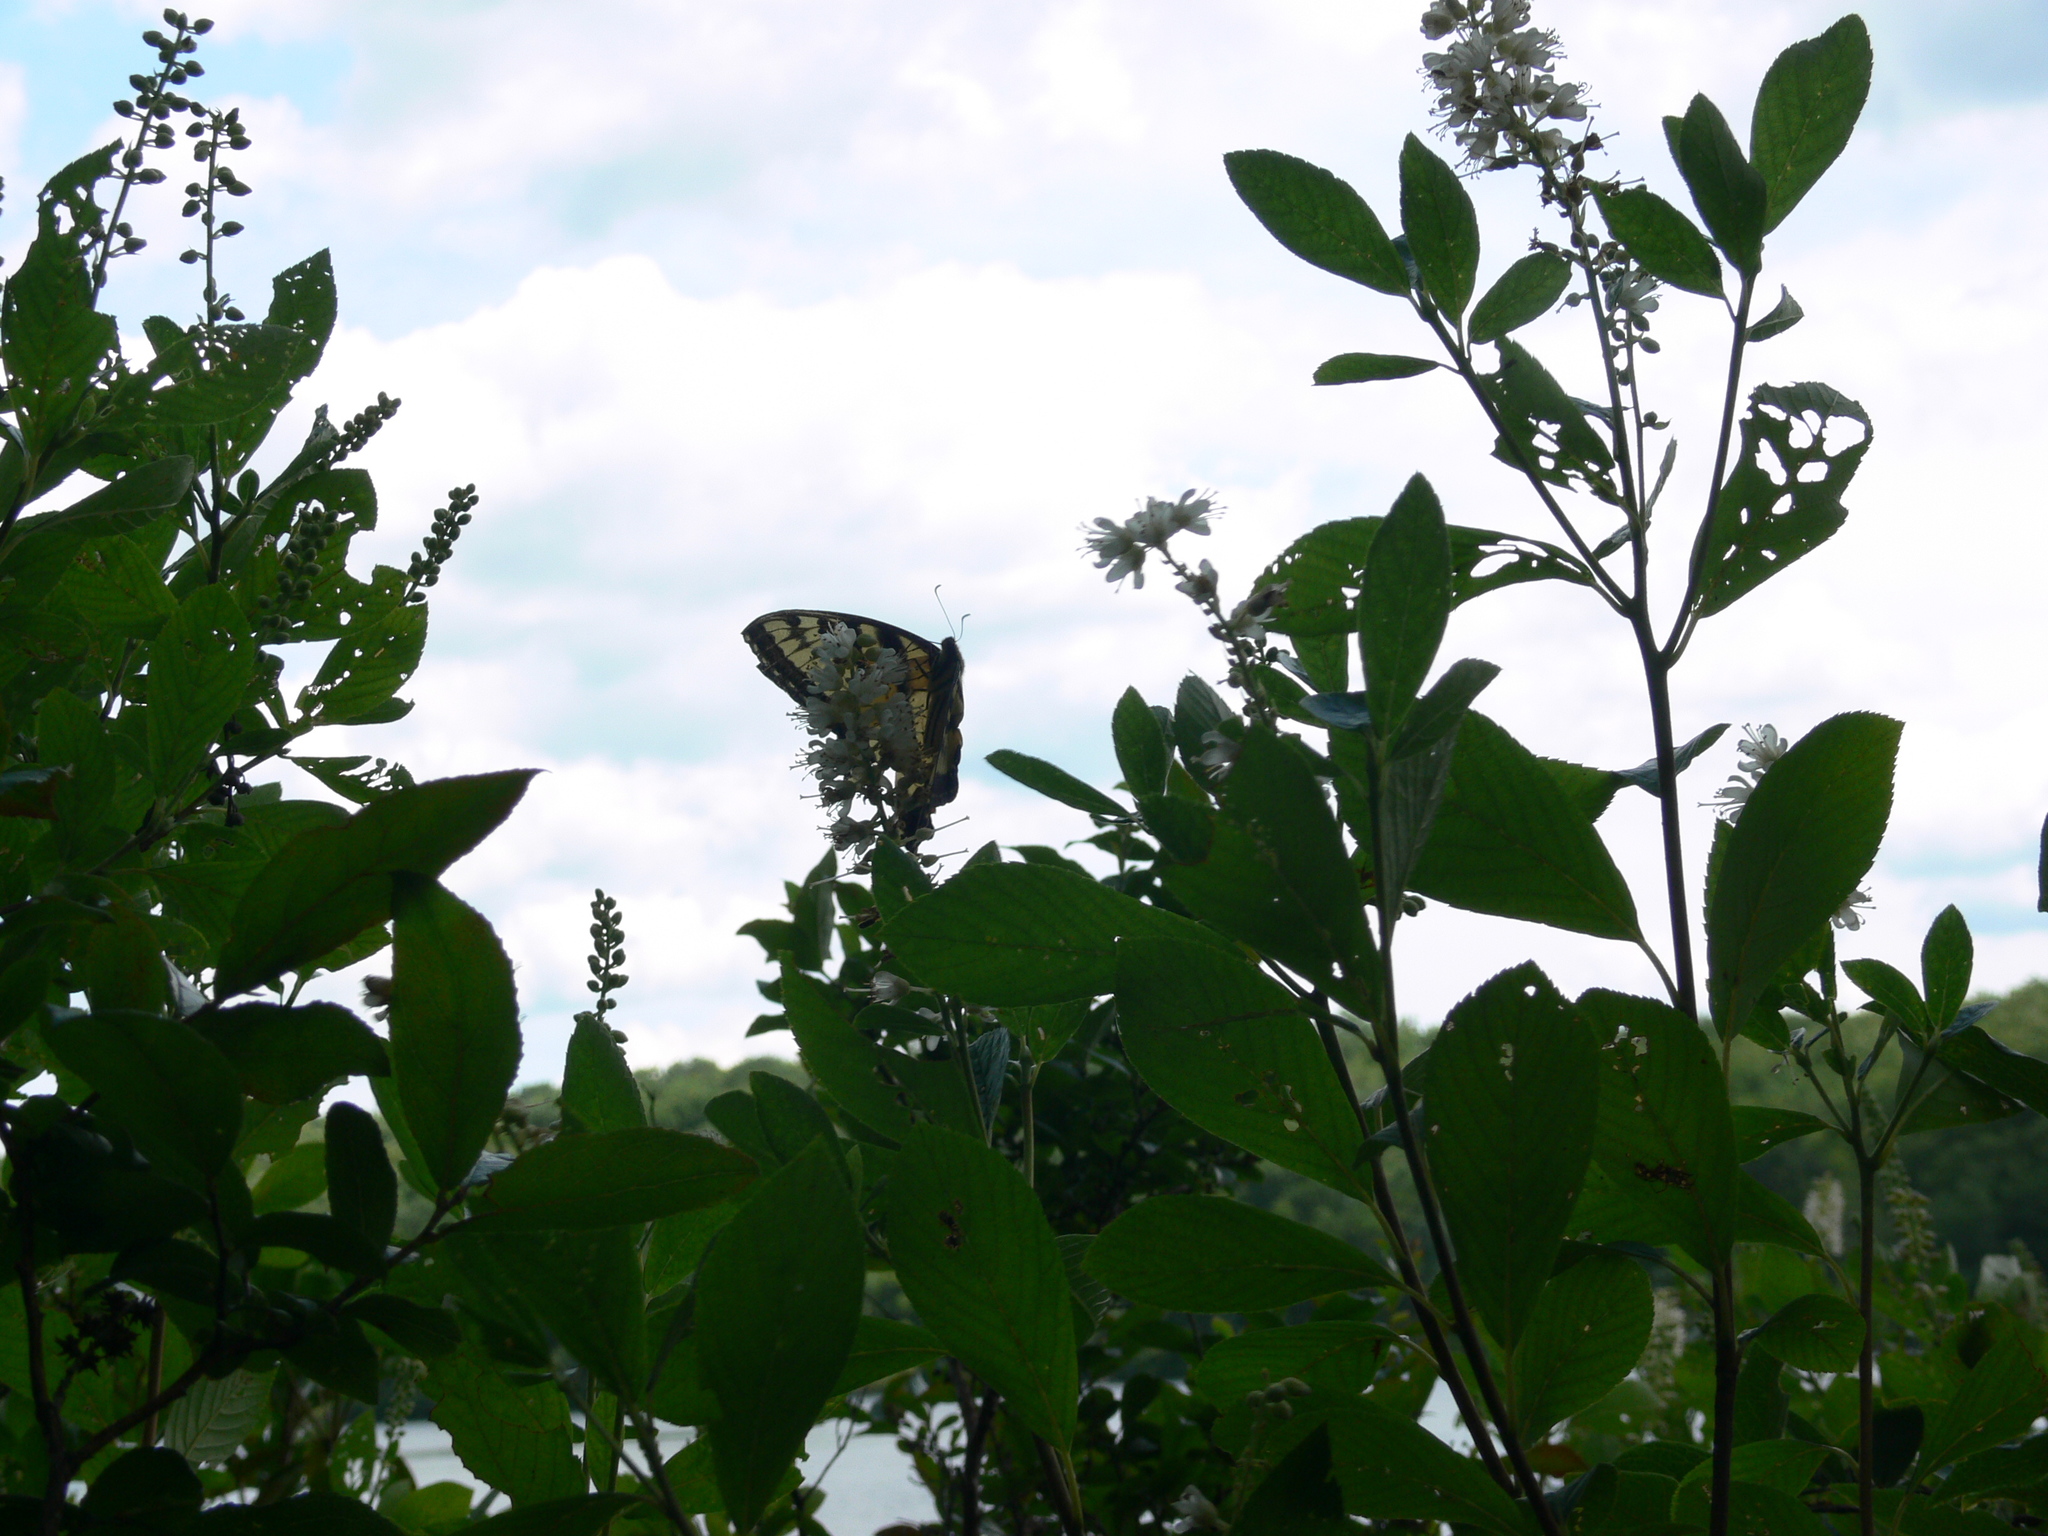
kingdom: Animalia
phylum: Arthropoda
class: Insecta
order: Lepidoptera
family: Papilionidae
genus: Papilio
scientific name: Papilio glaucus
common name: Tiger swallowtail
